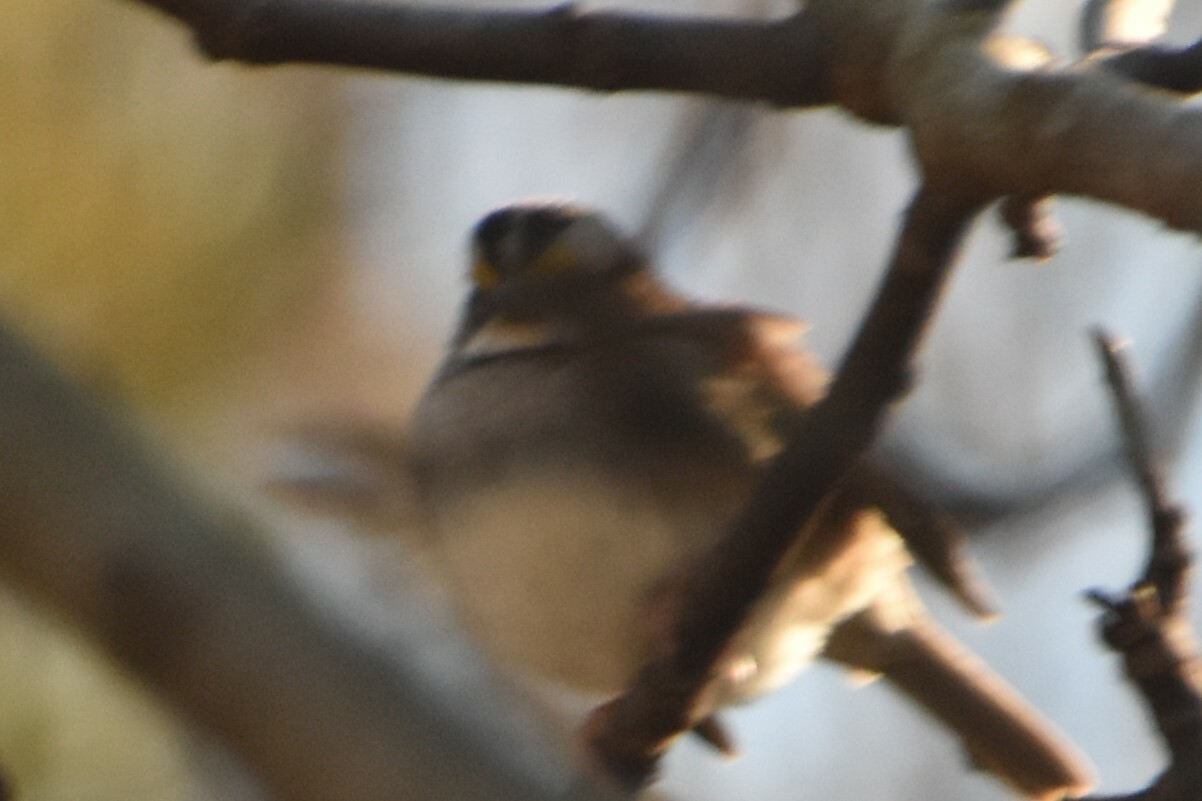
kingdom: Animalia
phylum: Chordata
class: Aves
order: Passeriformes
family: Passerellidae
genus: Zonotrichia
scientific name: Zonotrichia albicollis
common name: White-throated sparrow
